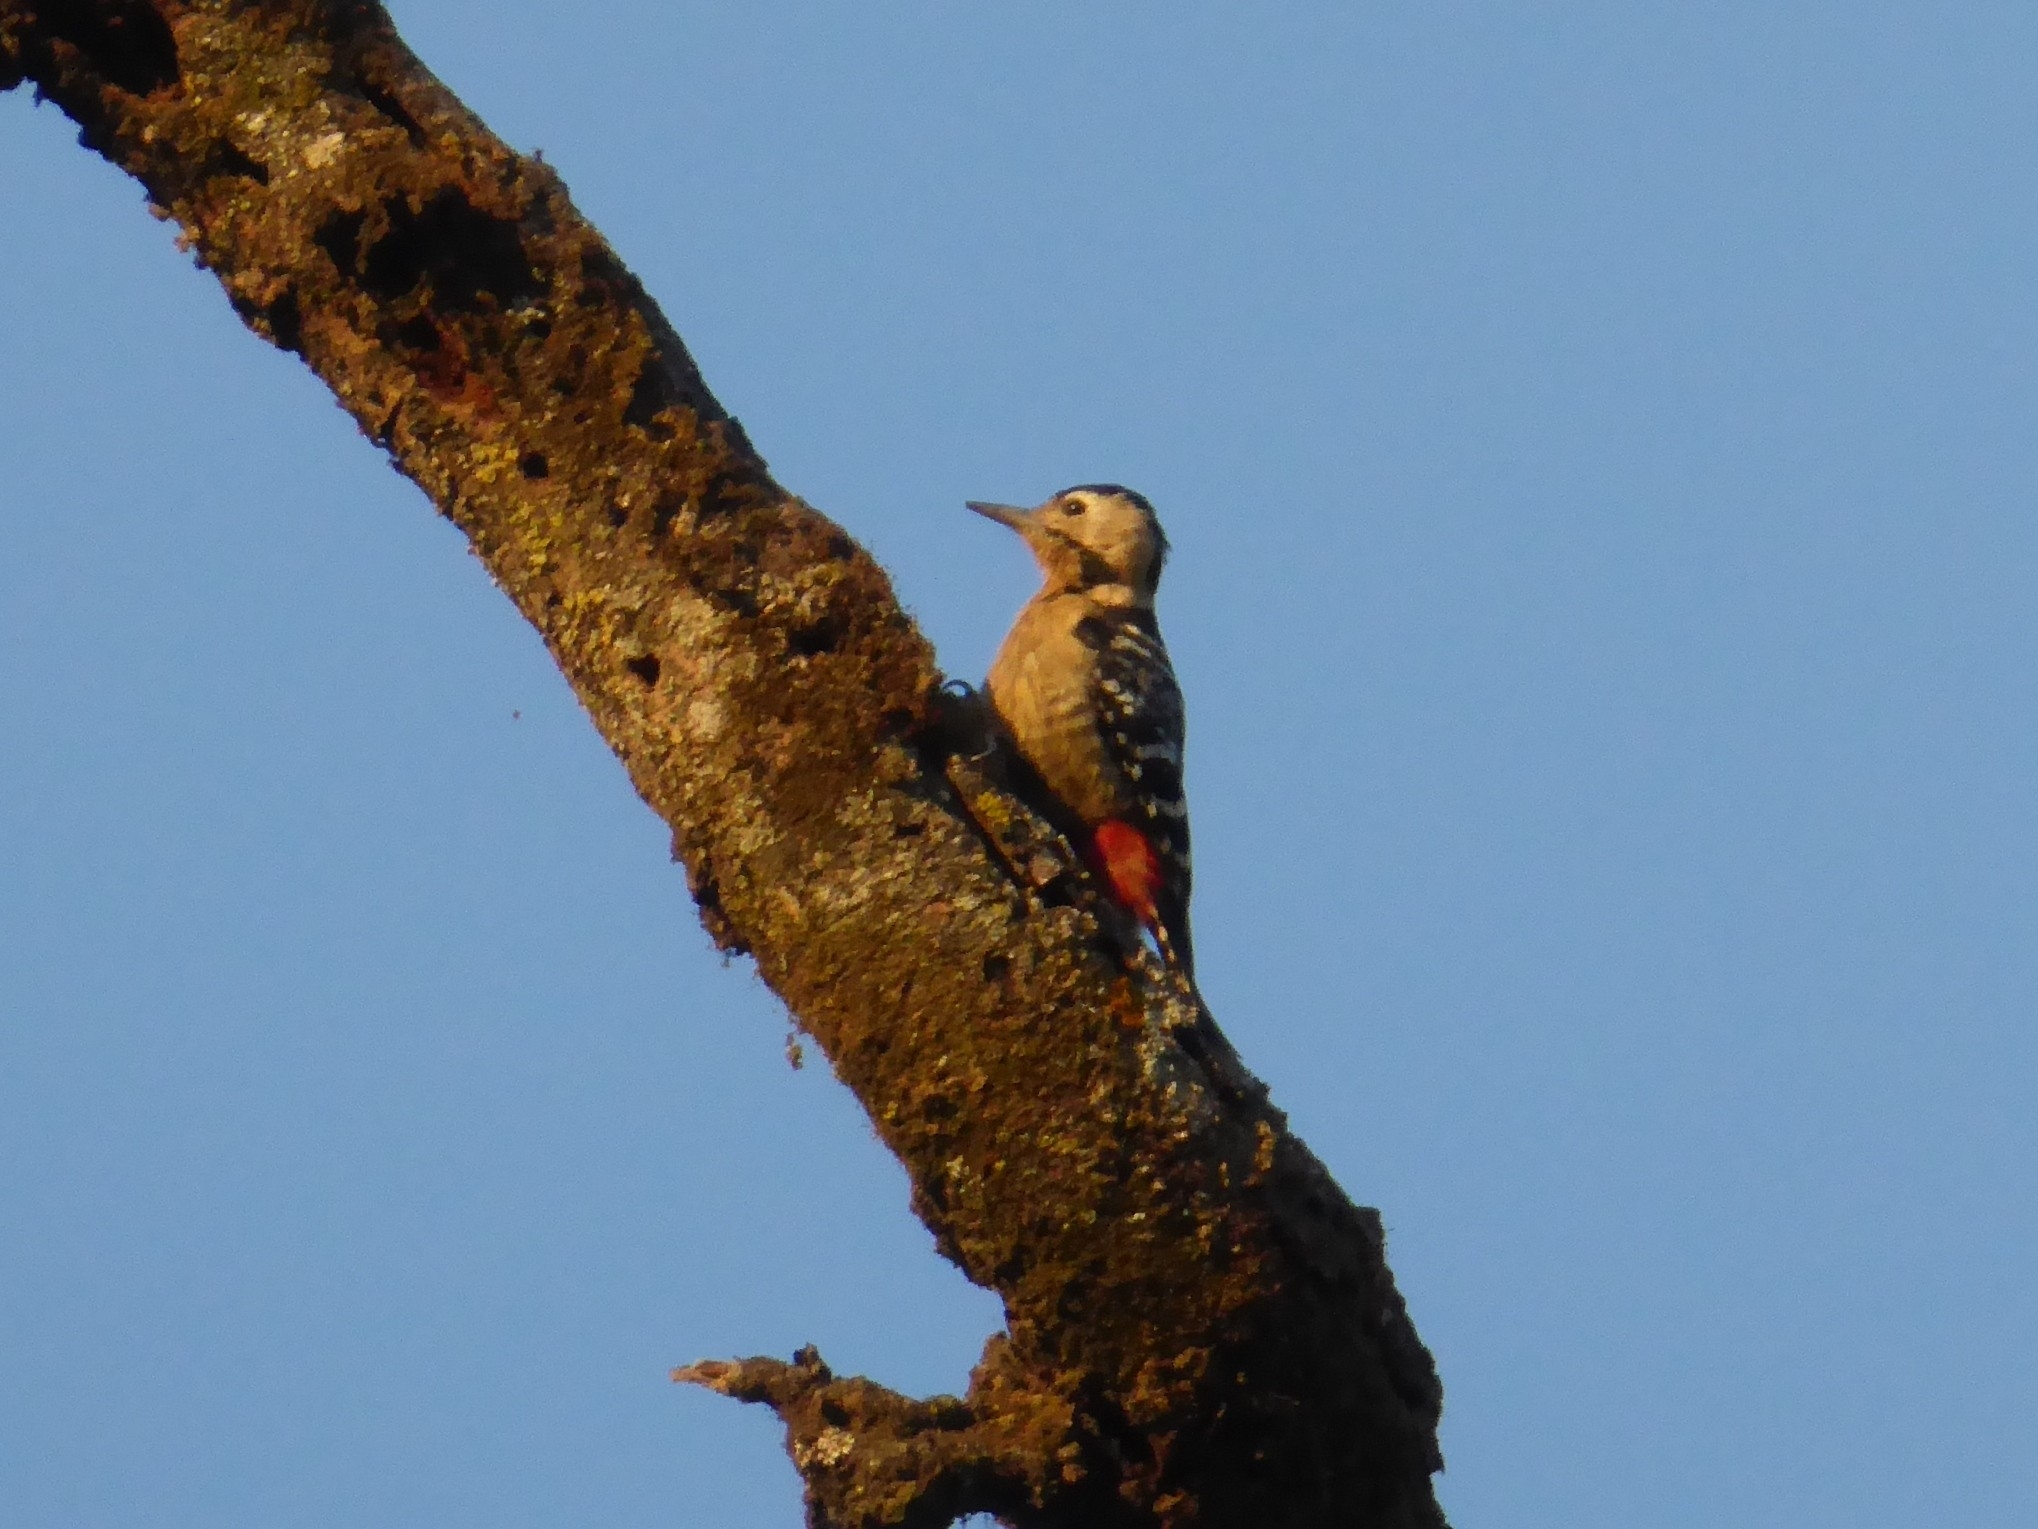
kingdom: Animalia
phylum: Chordata
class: Aves
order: Piciformes
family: Picidae
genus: Dendrocopos
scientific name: Dendrocopos macei
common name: Fulvous-breasted woodpecker
